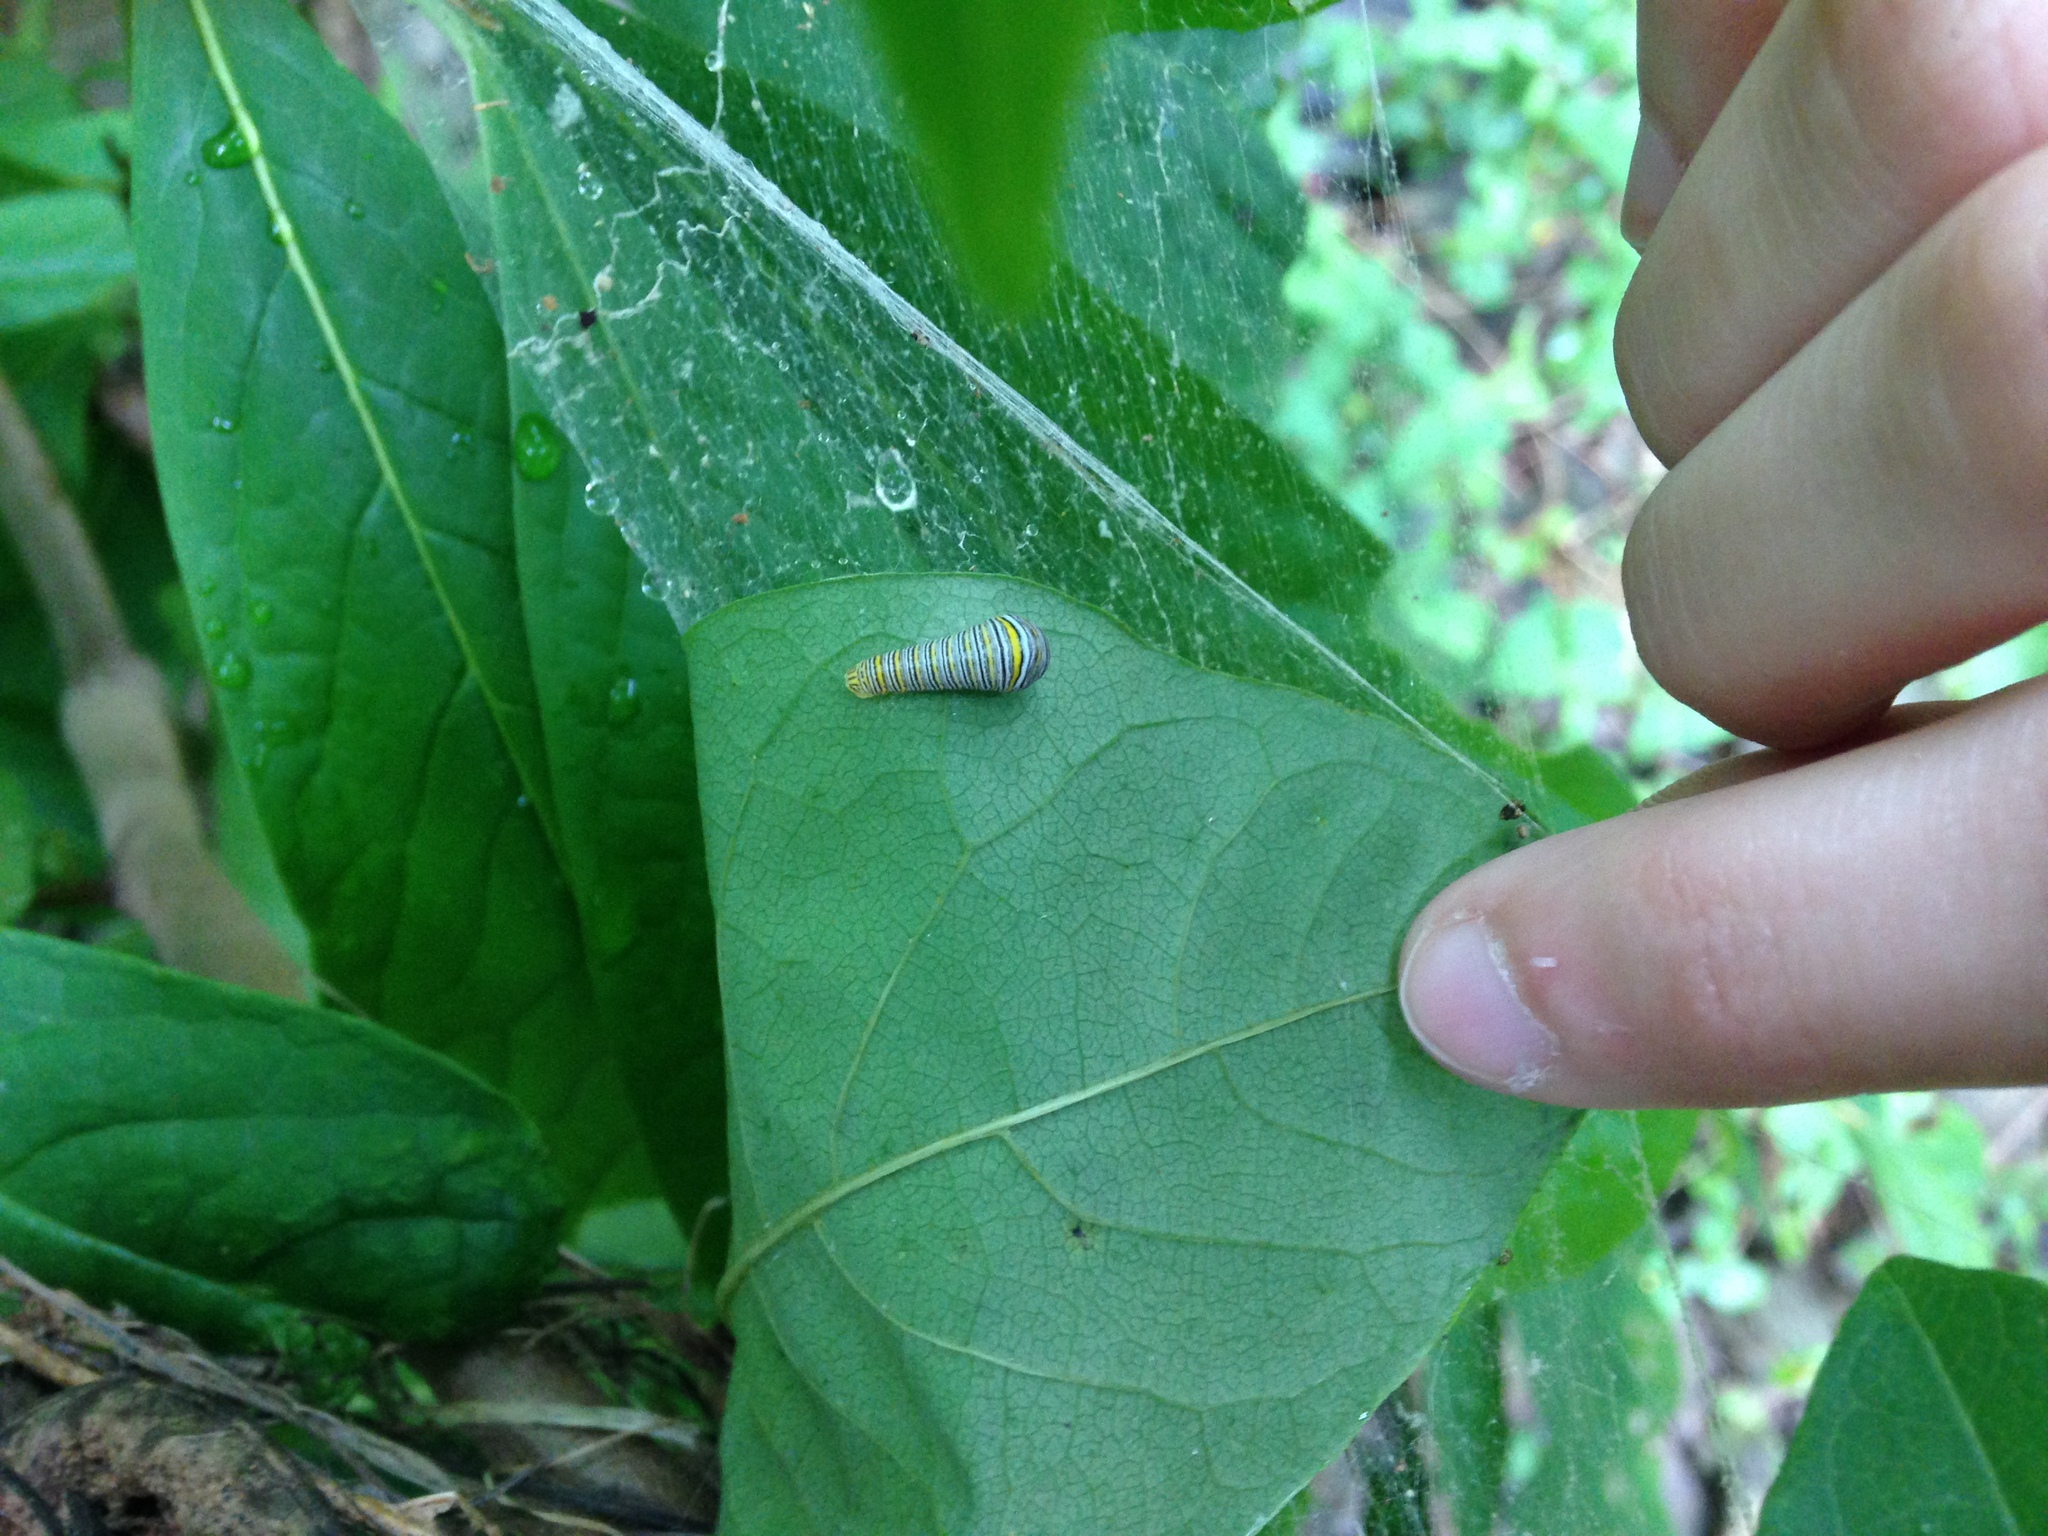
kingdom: Animalia
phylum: Arthropoda
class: Insecta
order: Lepidoptera
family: Papilionidae
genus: Protographium
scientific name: Protographium marcellus
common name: Zebra swallowtail
